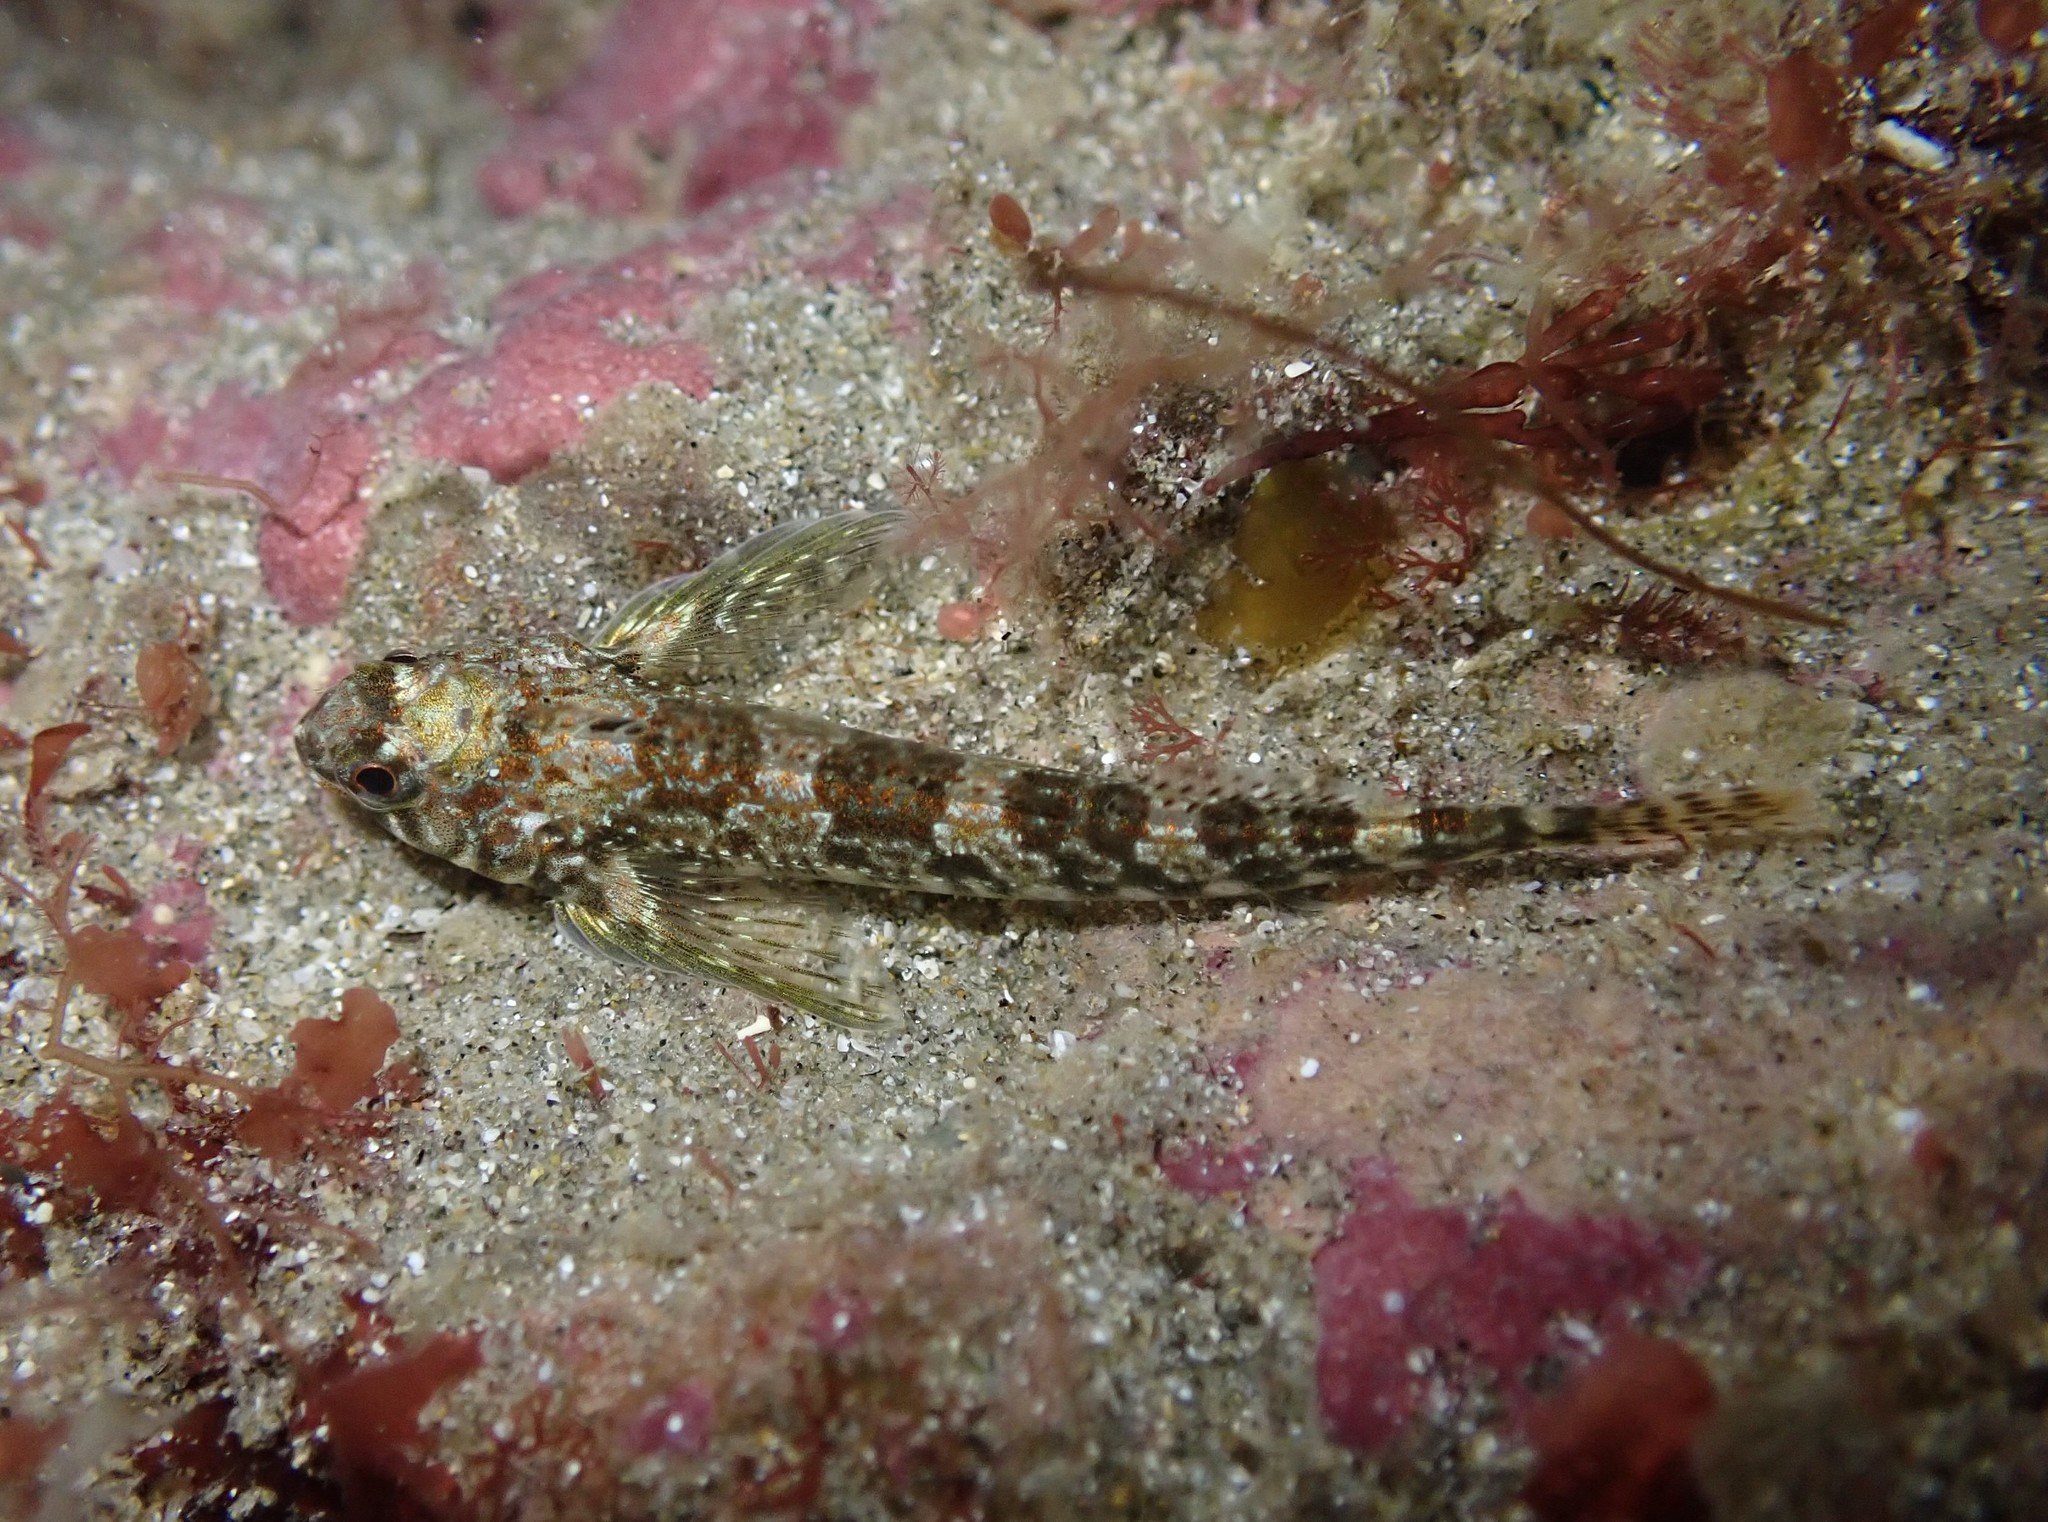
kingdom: Animalia
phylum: Chordata
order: Perciformes
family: Tripterygiidae
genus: Bellapiscis
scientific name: Bellapiscis lesleyae
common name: Mottled twister
